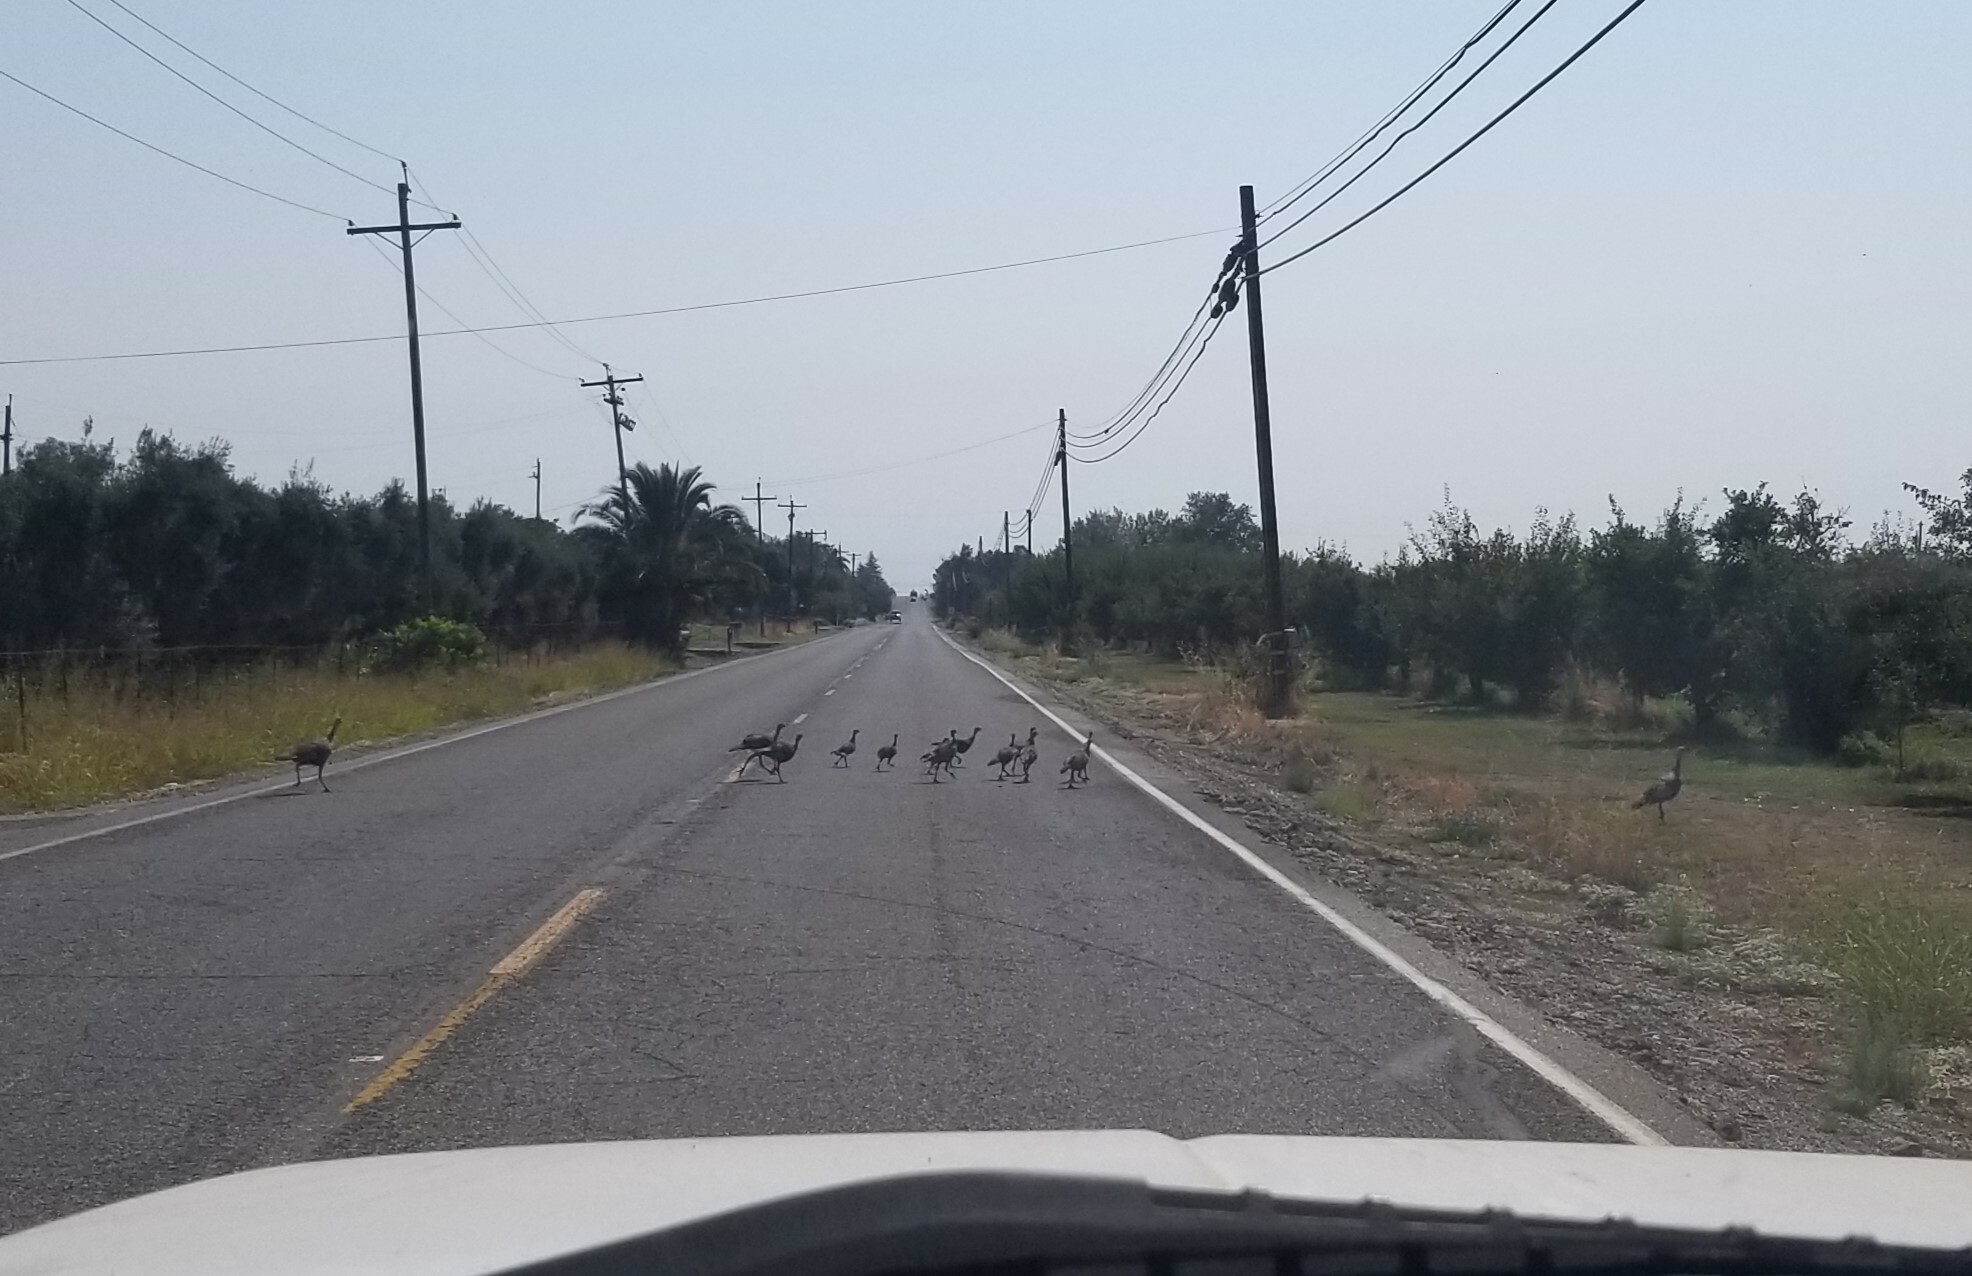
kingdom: Animalia
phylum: Chordata
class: Aves
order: Galliformes
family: Phasianidae
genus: Meleagris
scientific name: Meleagris gallopavo
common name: Wild turkey
